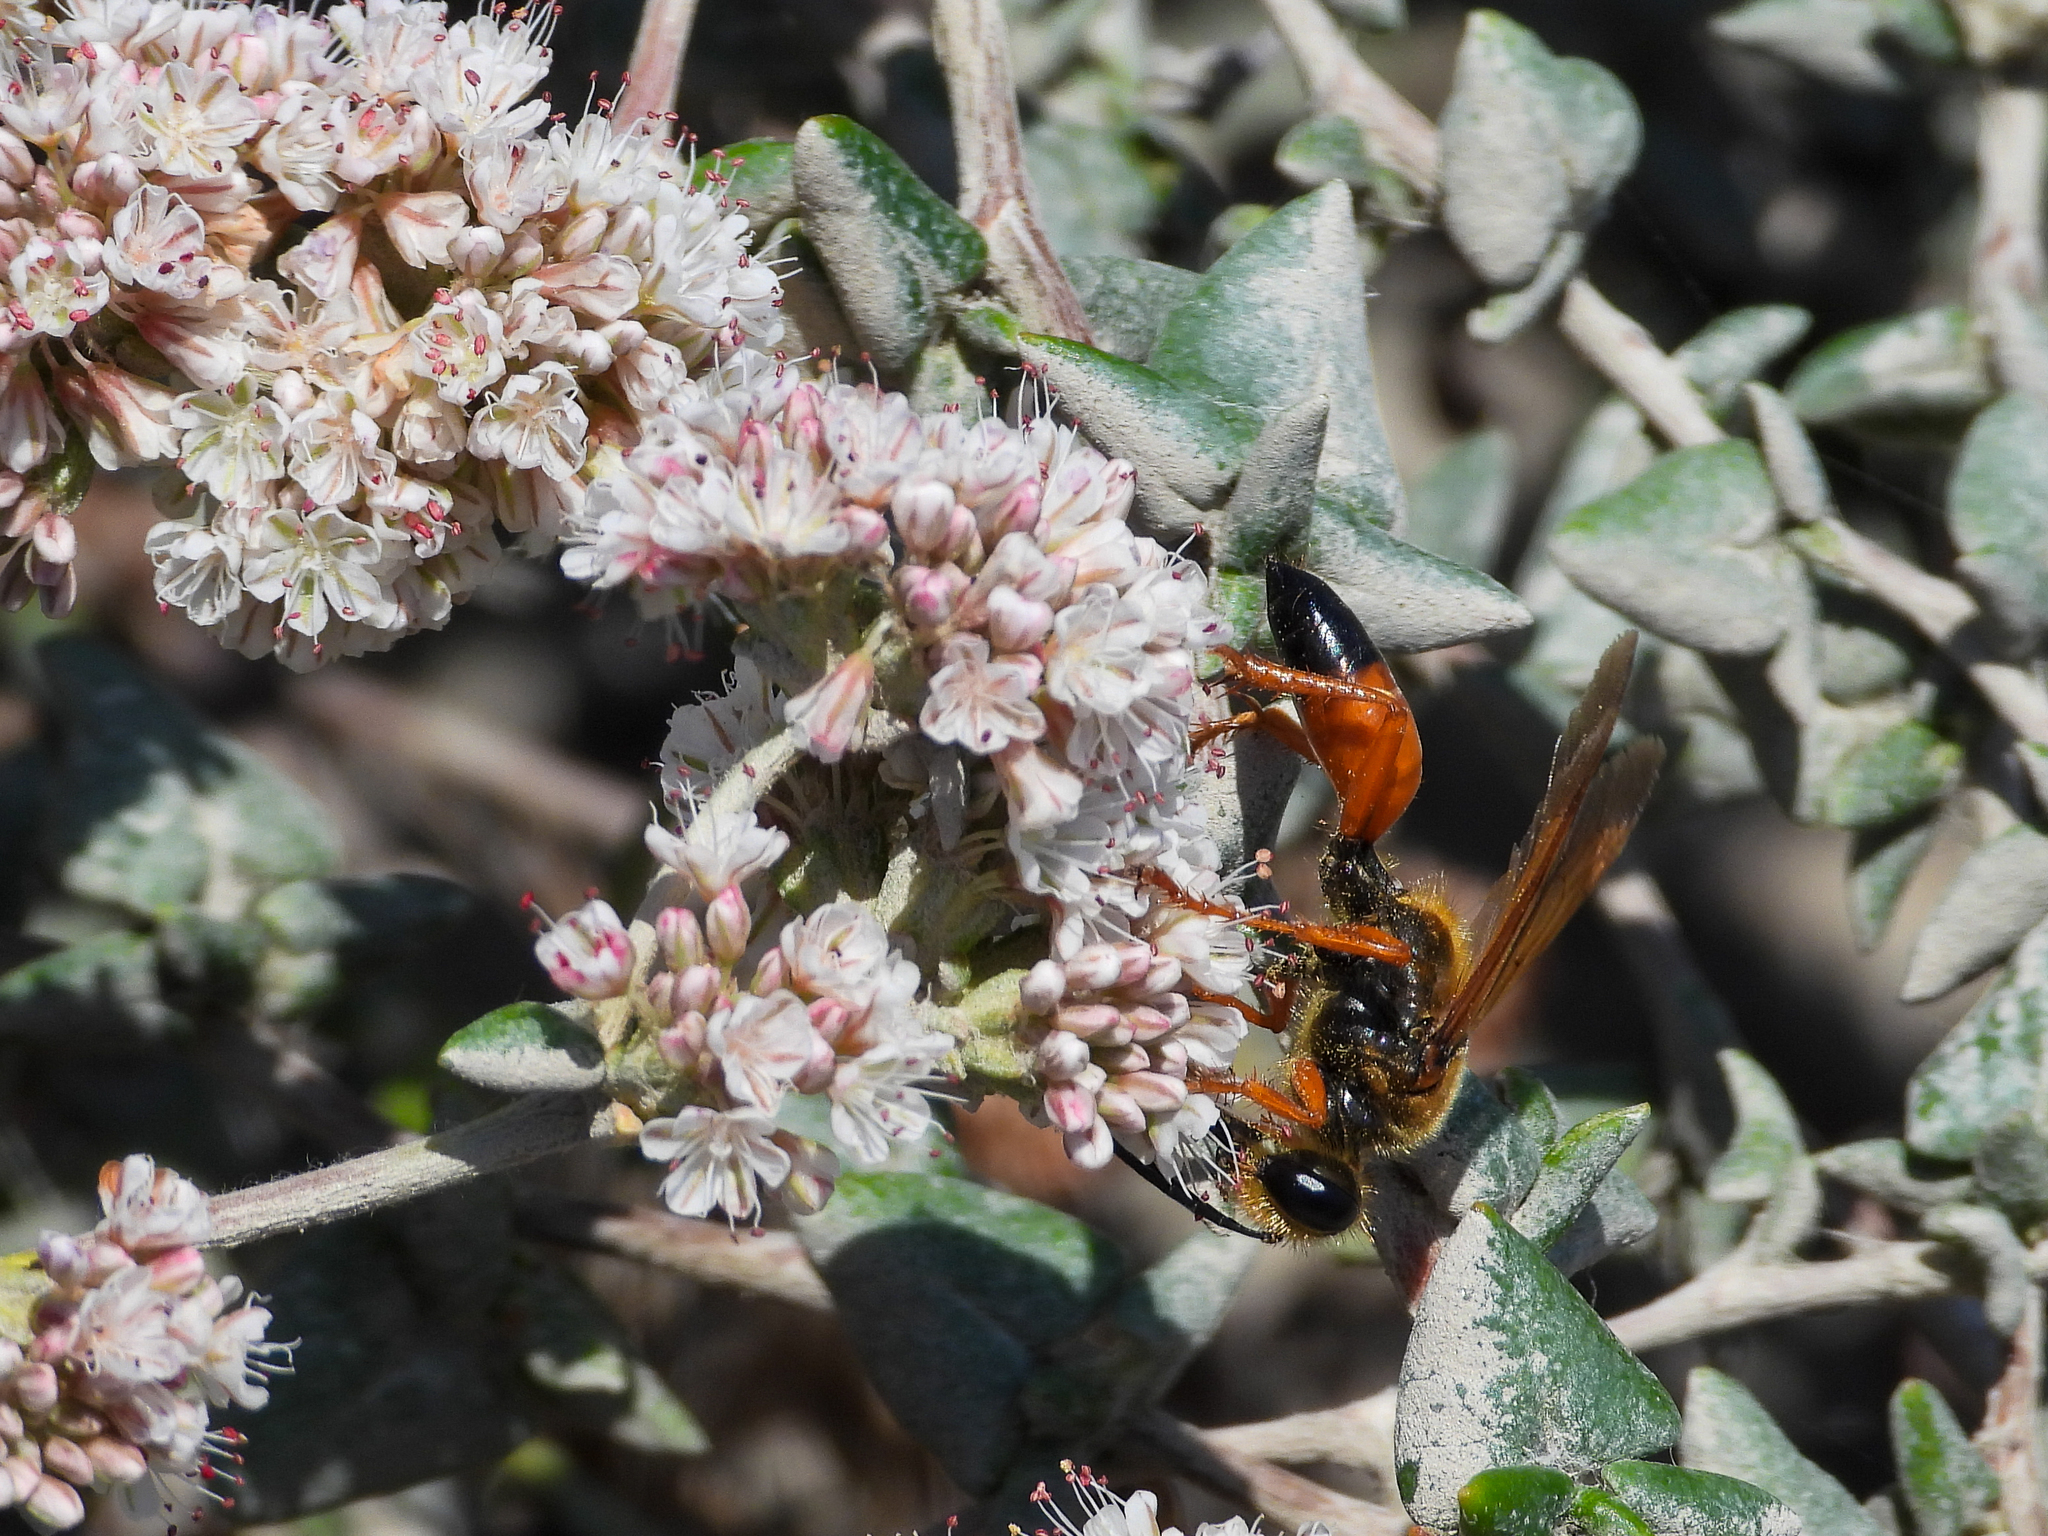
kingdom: Animalia
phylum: Arthropoda
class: Insecta
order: Hymenoptera
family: Sphecidae
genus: Sphex
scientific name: Sphex ichneumoneus
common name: Great golden digger wasp
